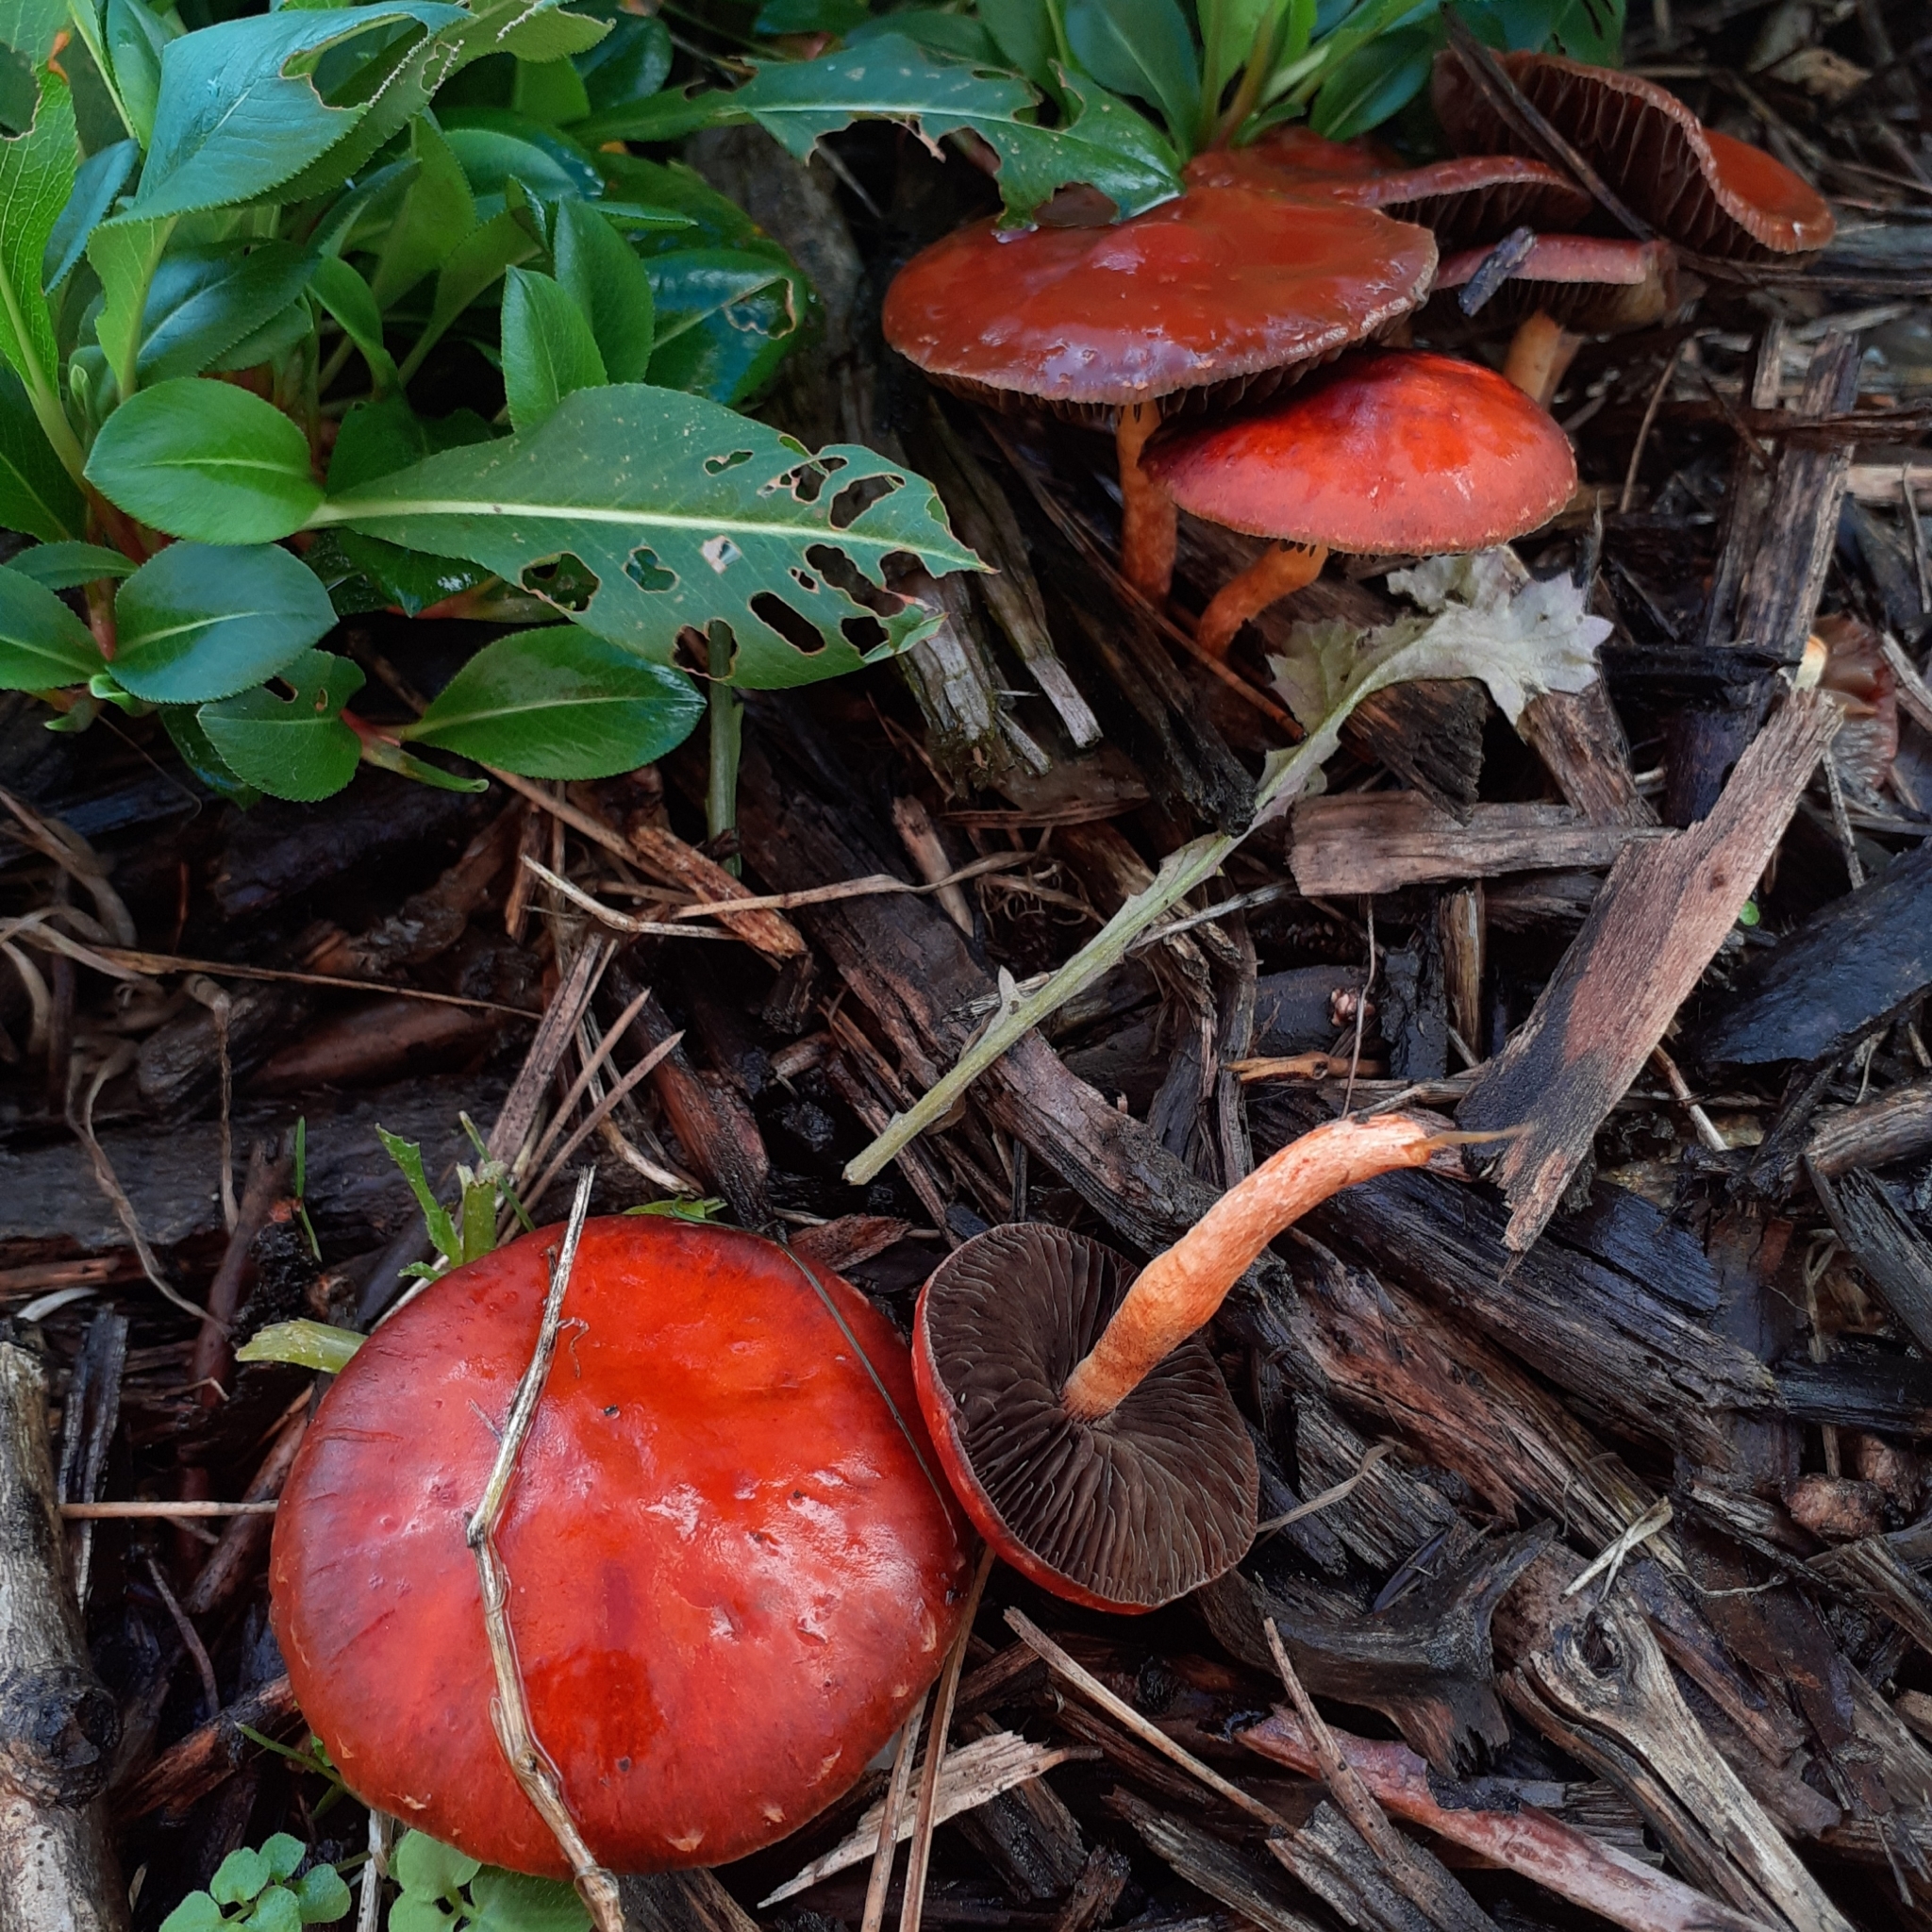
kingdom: Fungi
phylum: Basidiomycota
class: Agaricomycetes
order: Agaricales
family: Strophariaceae
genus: Leratiomyces
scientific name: Leratiomyces ceres
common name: Redlead roundhead
